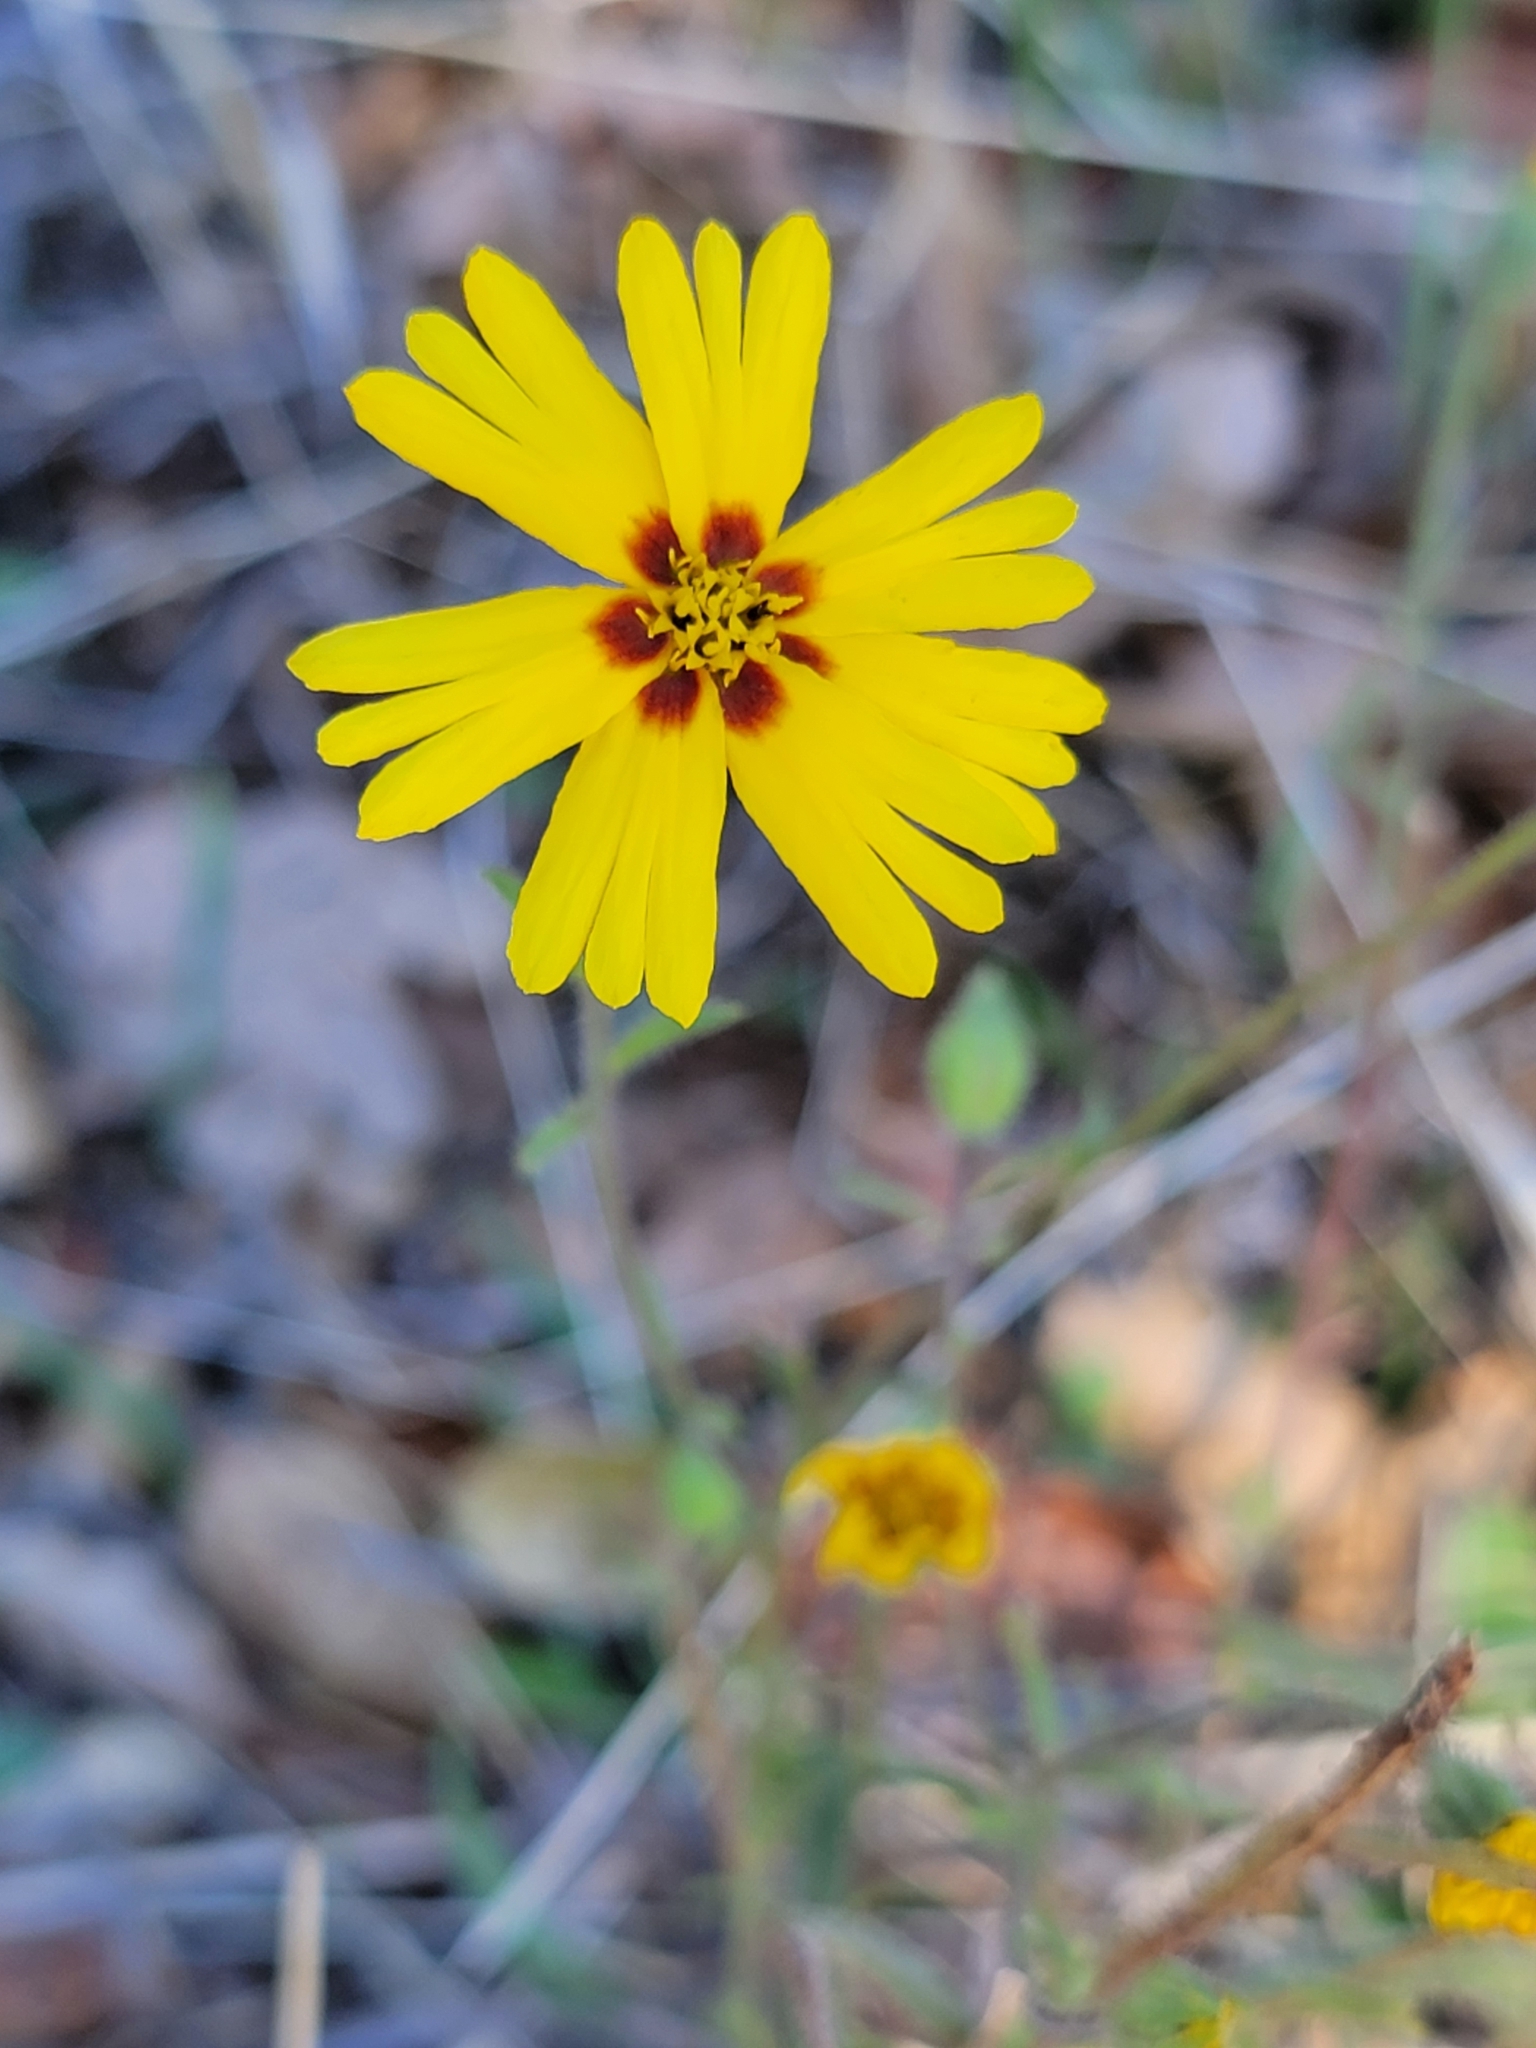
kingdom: Plantae
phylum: Tracheophyta
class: Magnoliopsida
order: Asterales
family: Asteraceae
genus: Madia
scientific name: Madia elegans
